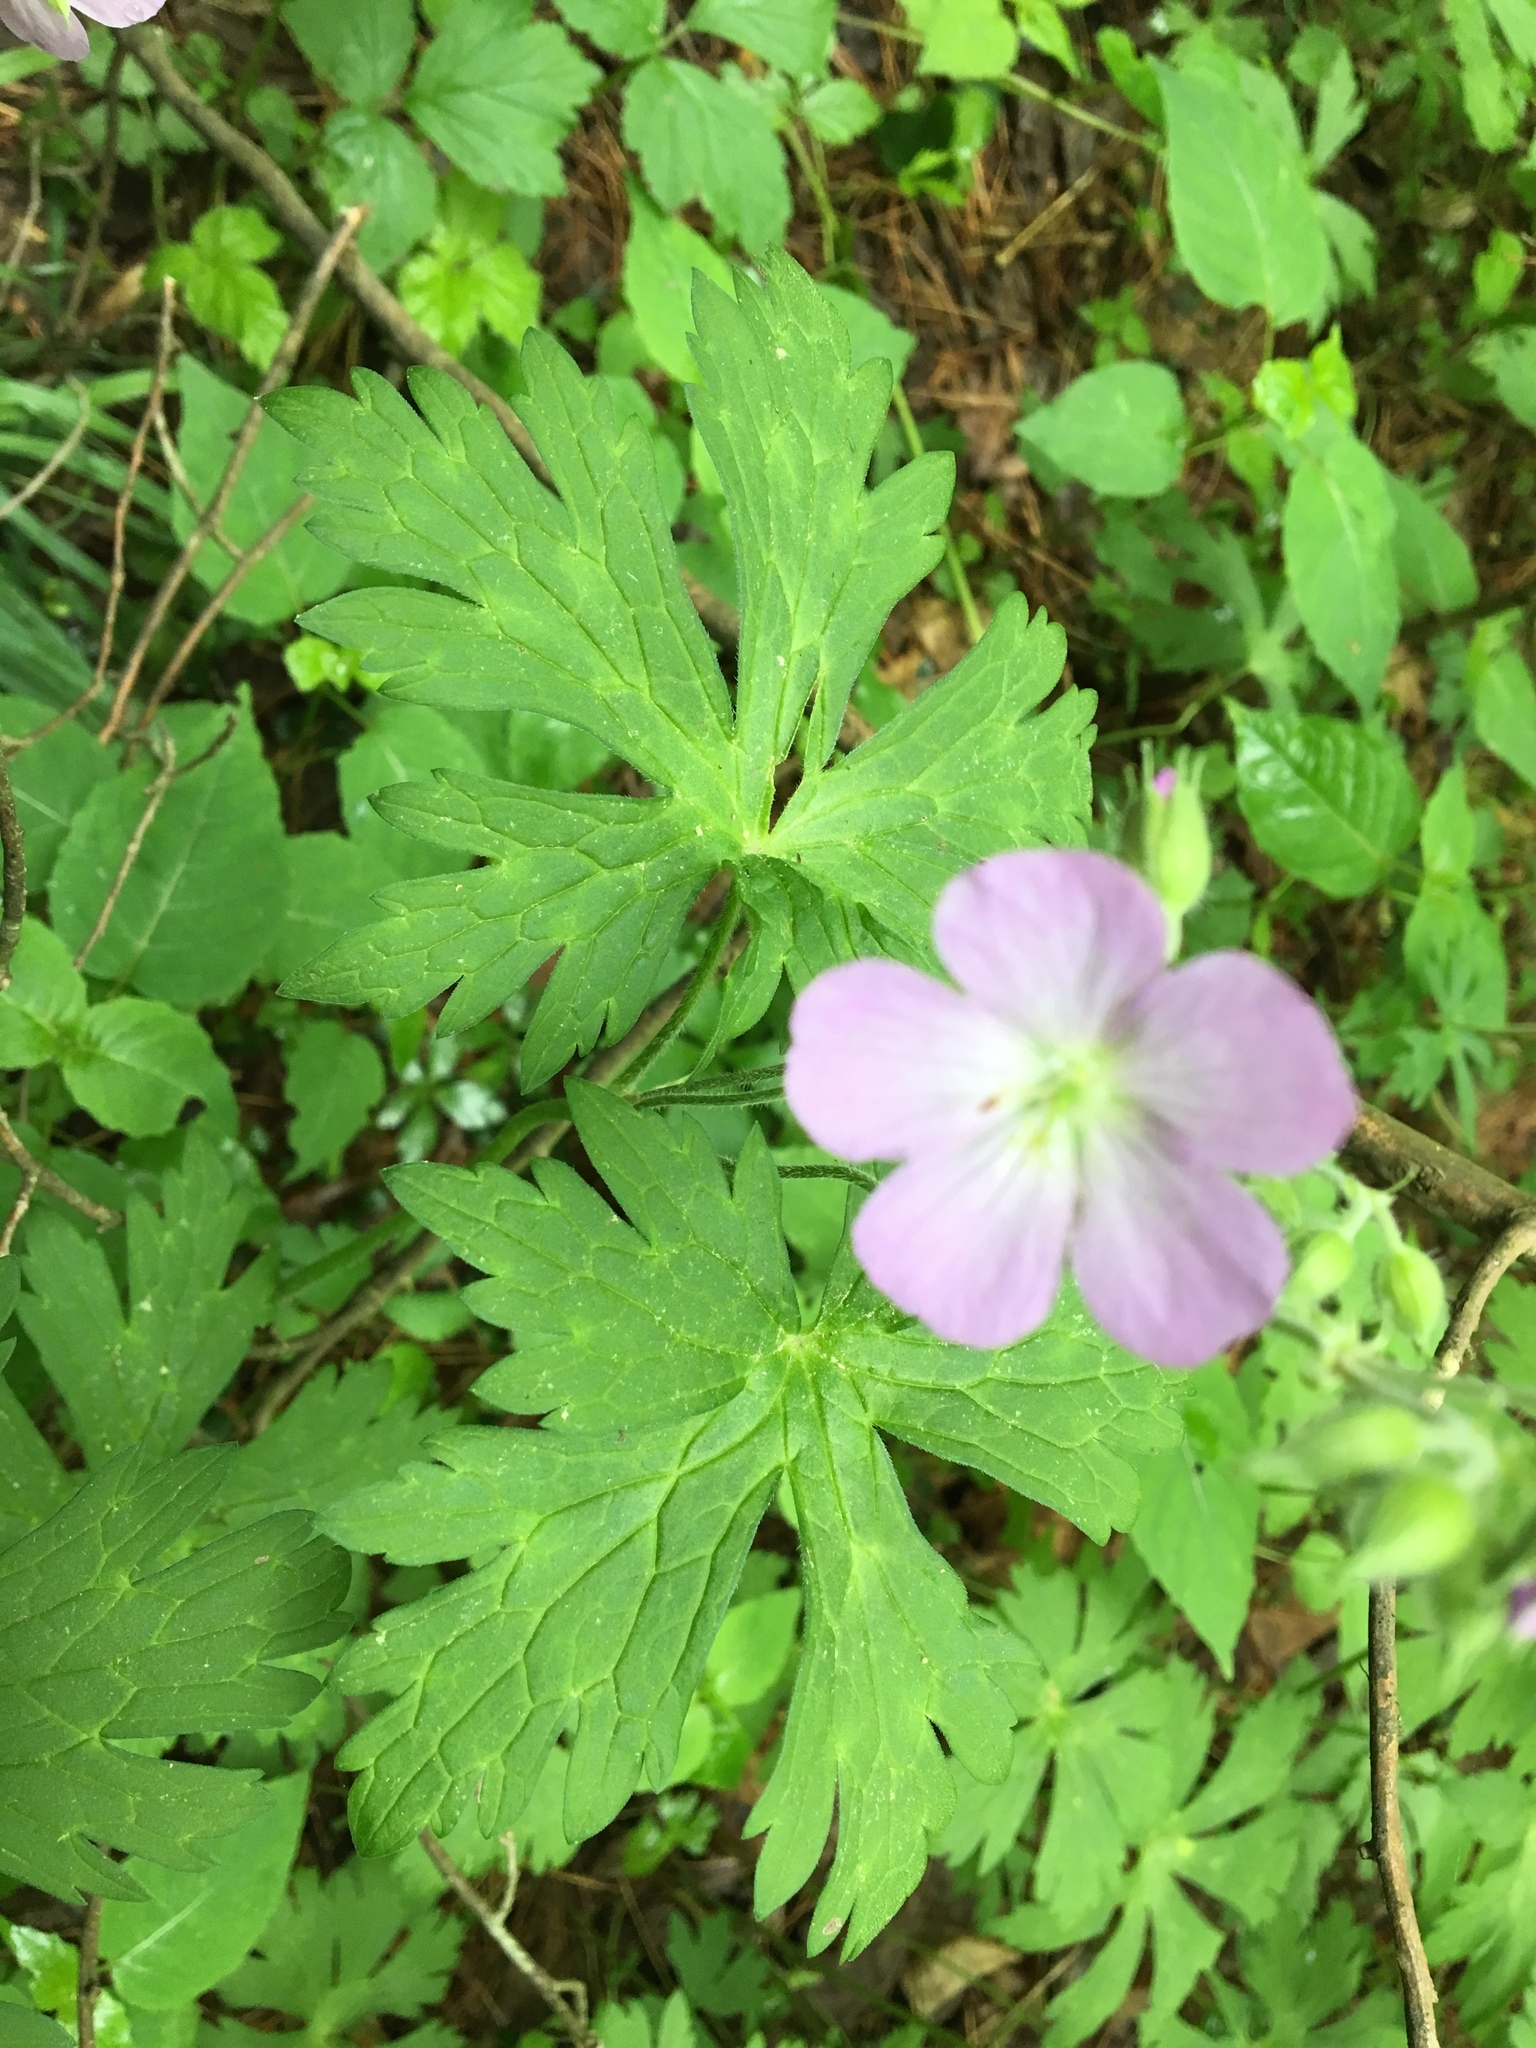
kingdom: Plantae
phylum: Tracheophyta
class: Magnoliopsida
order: Geraniales
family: Geraniaceae
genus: Geranium
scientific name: Geranium maculatum
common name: Spotted geranium
